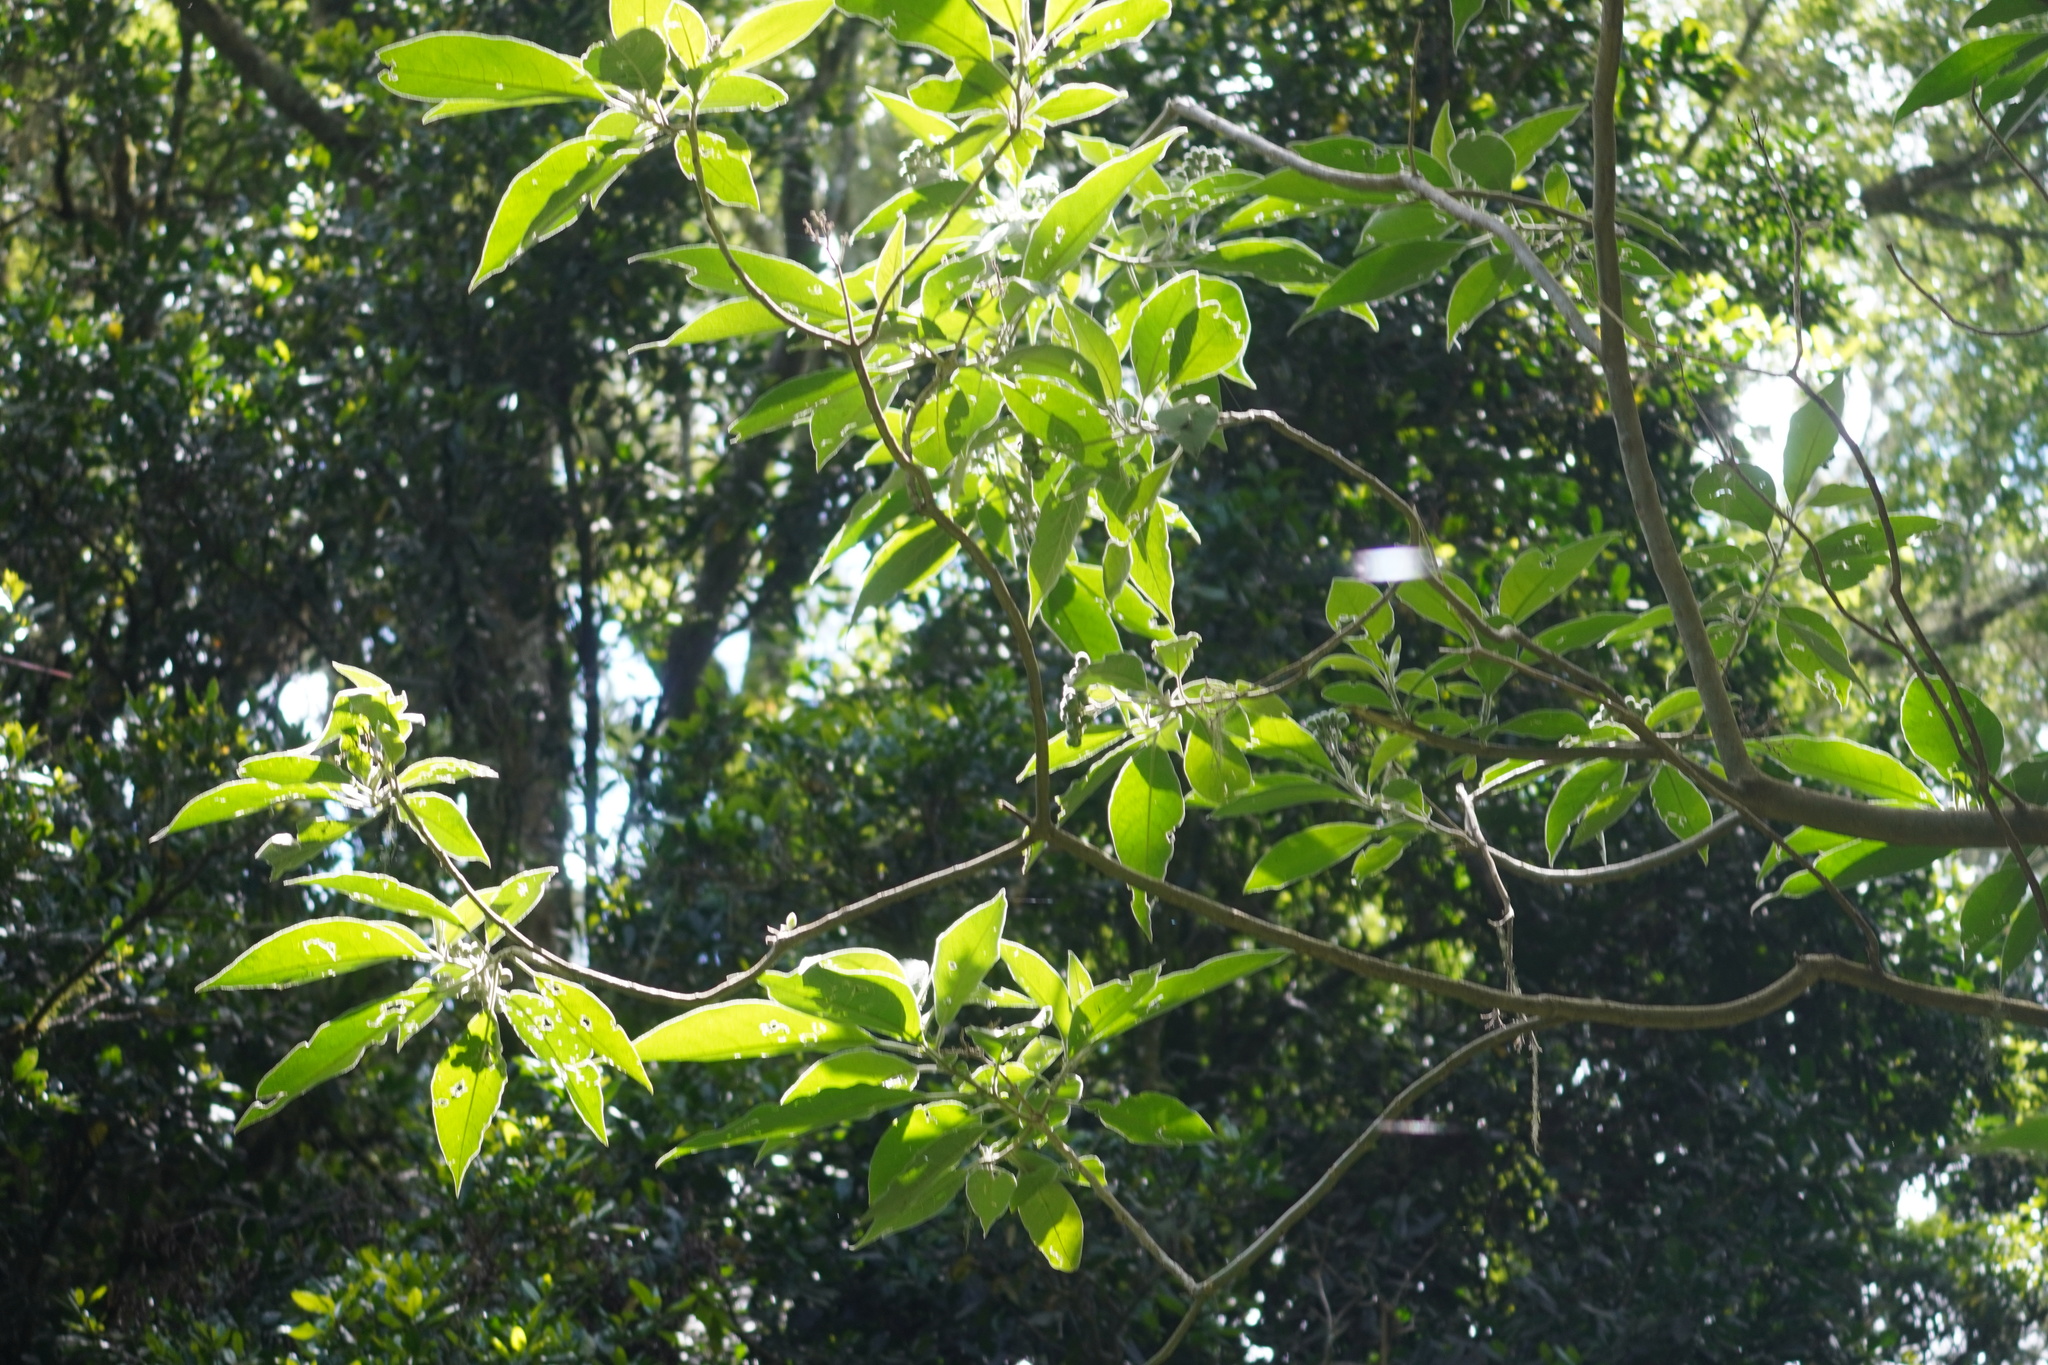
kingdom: Plantae
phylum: Tracheophyta
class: Magnoliopsida
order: Solanales
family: Solanaceae
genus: Solanum
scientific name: Solanum mauritianum
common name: Earleaf nightshade
